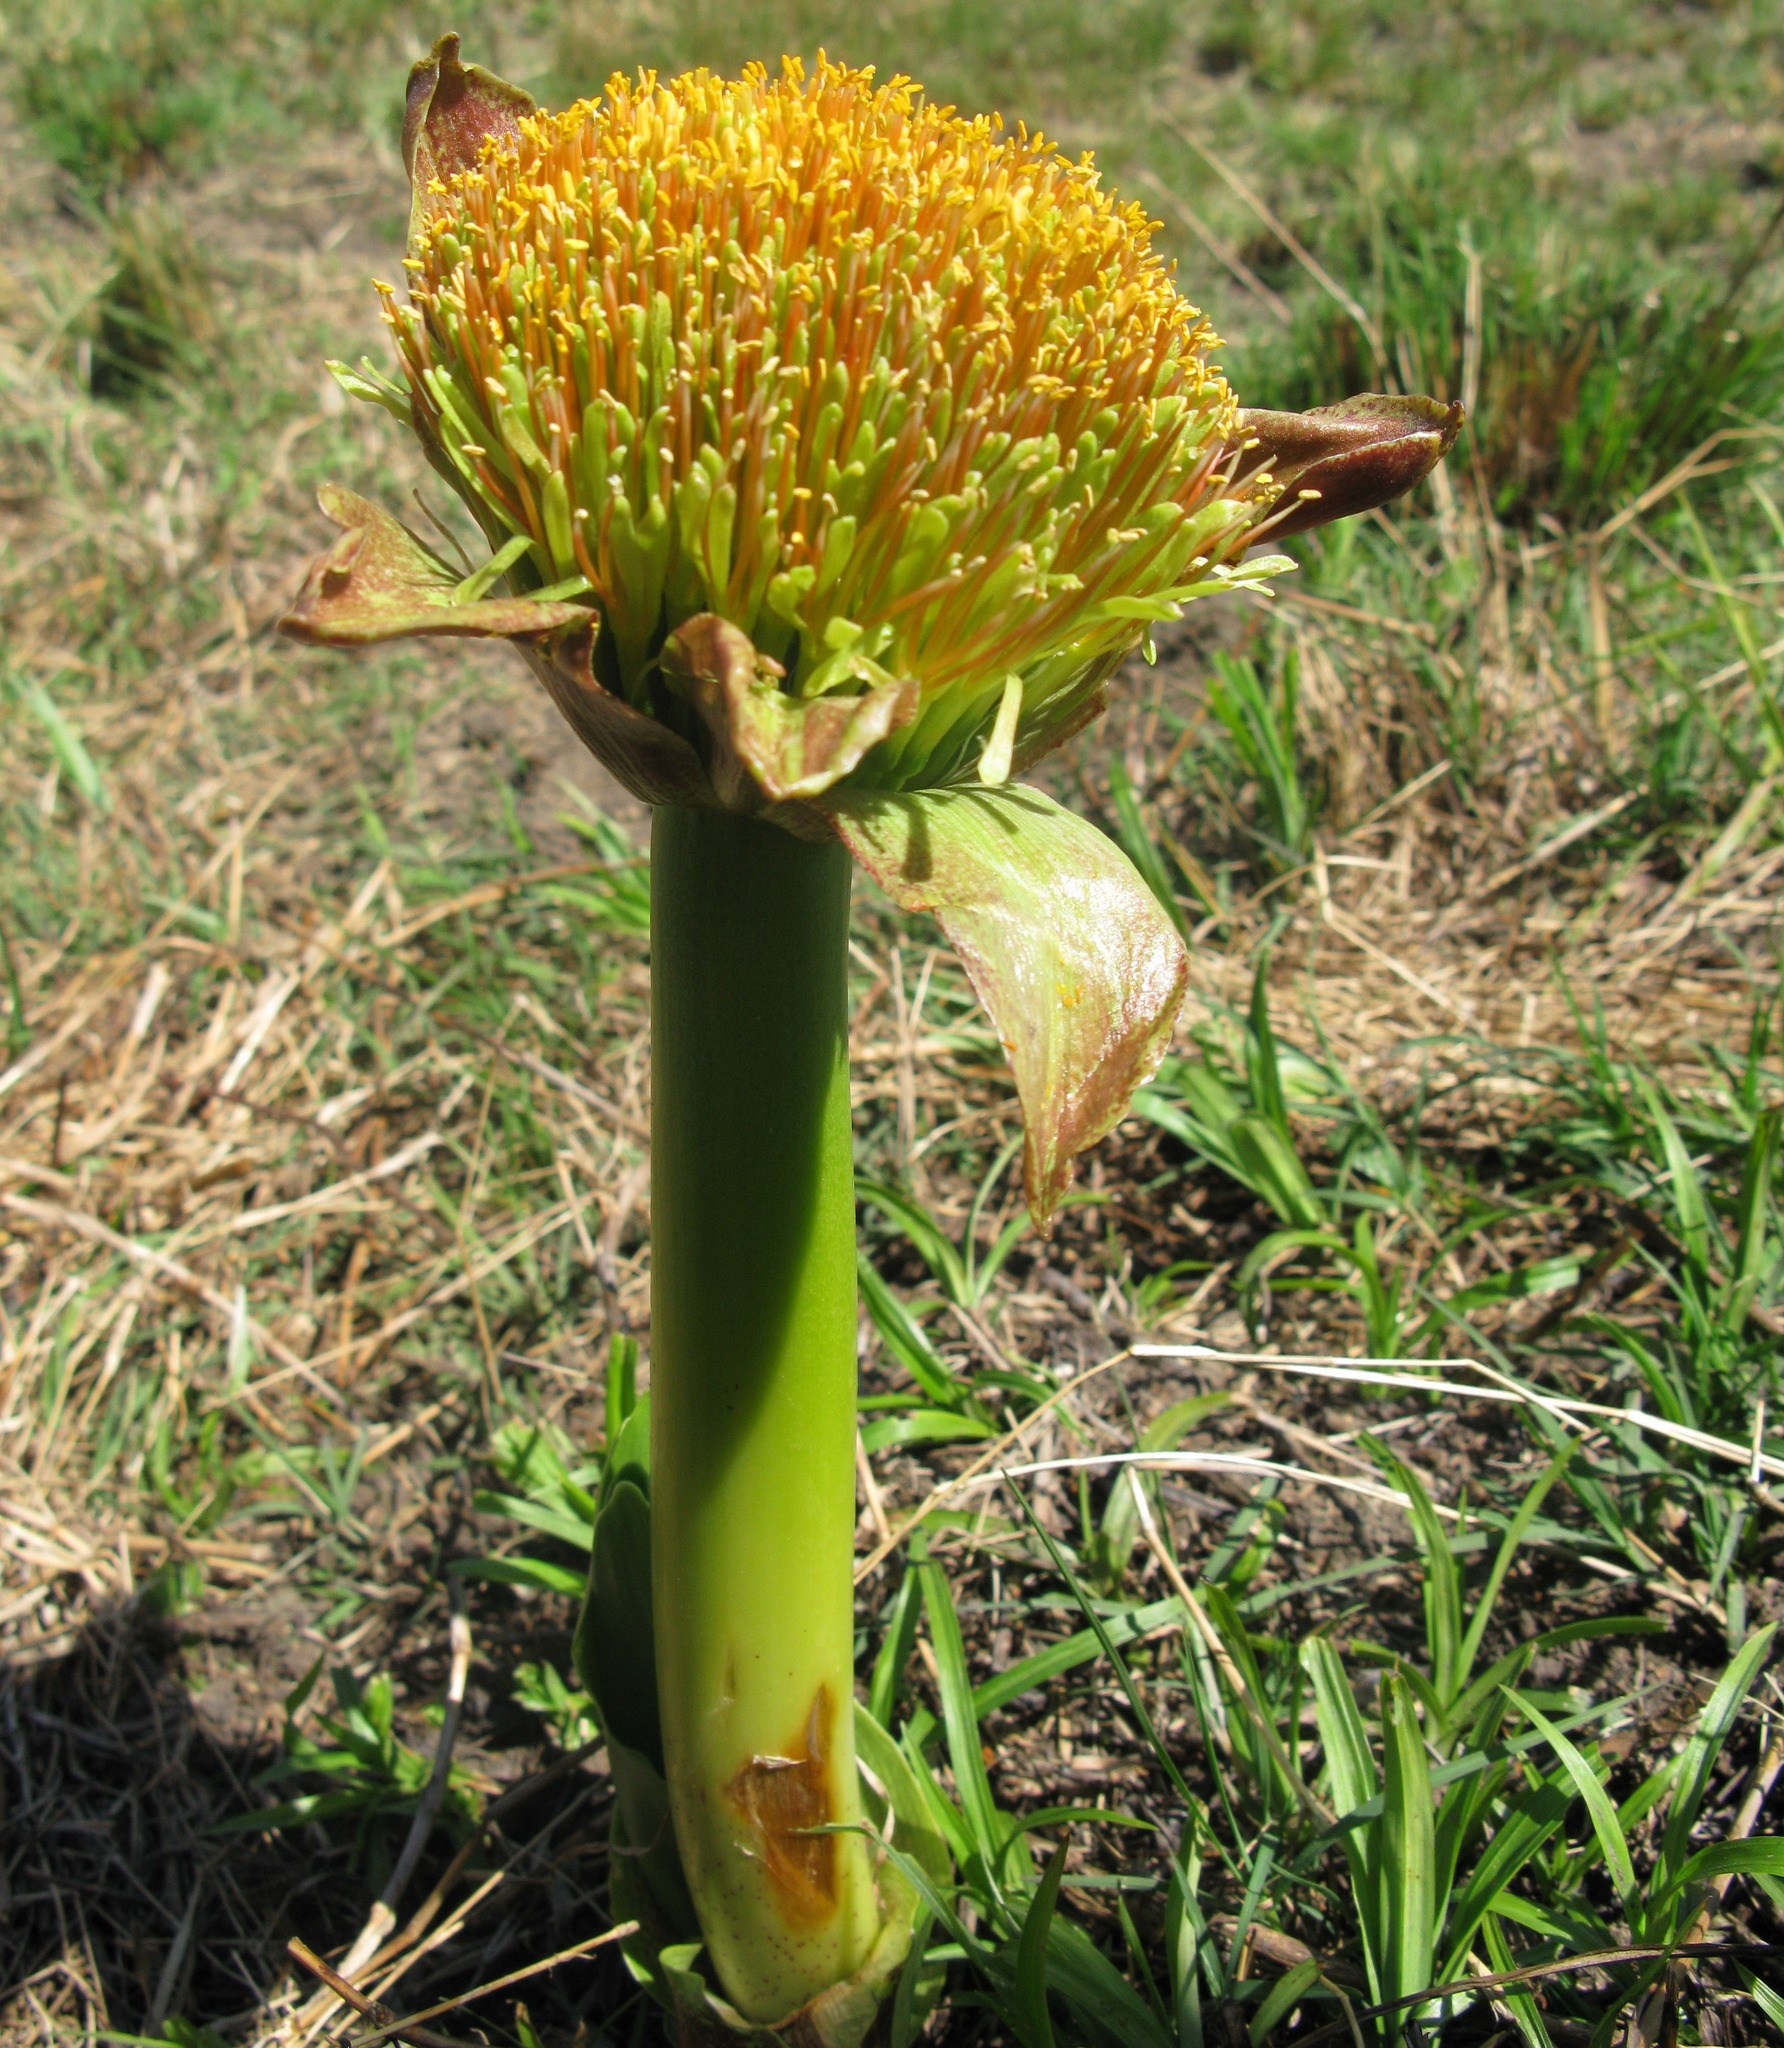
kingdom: Plantae
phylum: Tracheophyta
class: Liliopsida
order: Asparagales
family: Amaryllidaceae
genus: Scadoxus
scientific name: Scadoxus puniceus
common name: Royal-paintbrush
